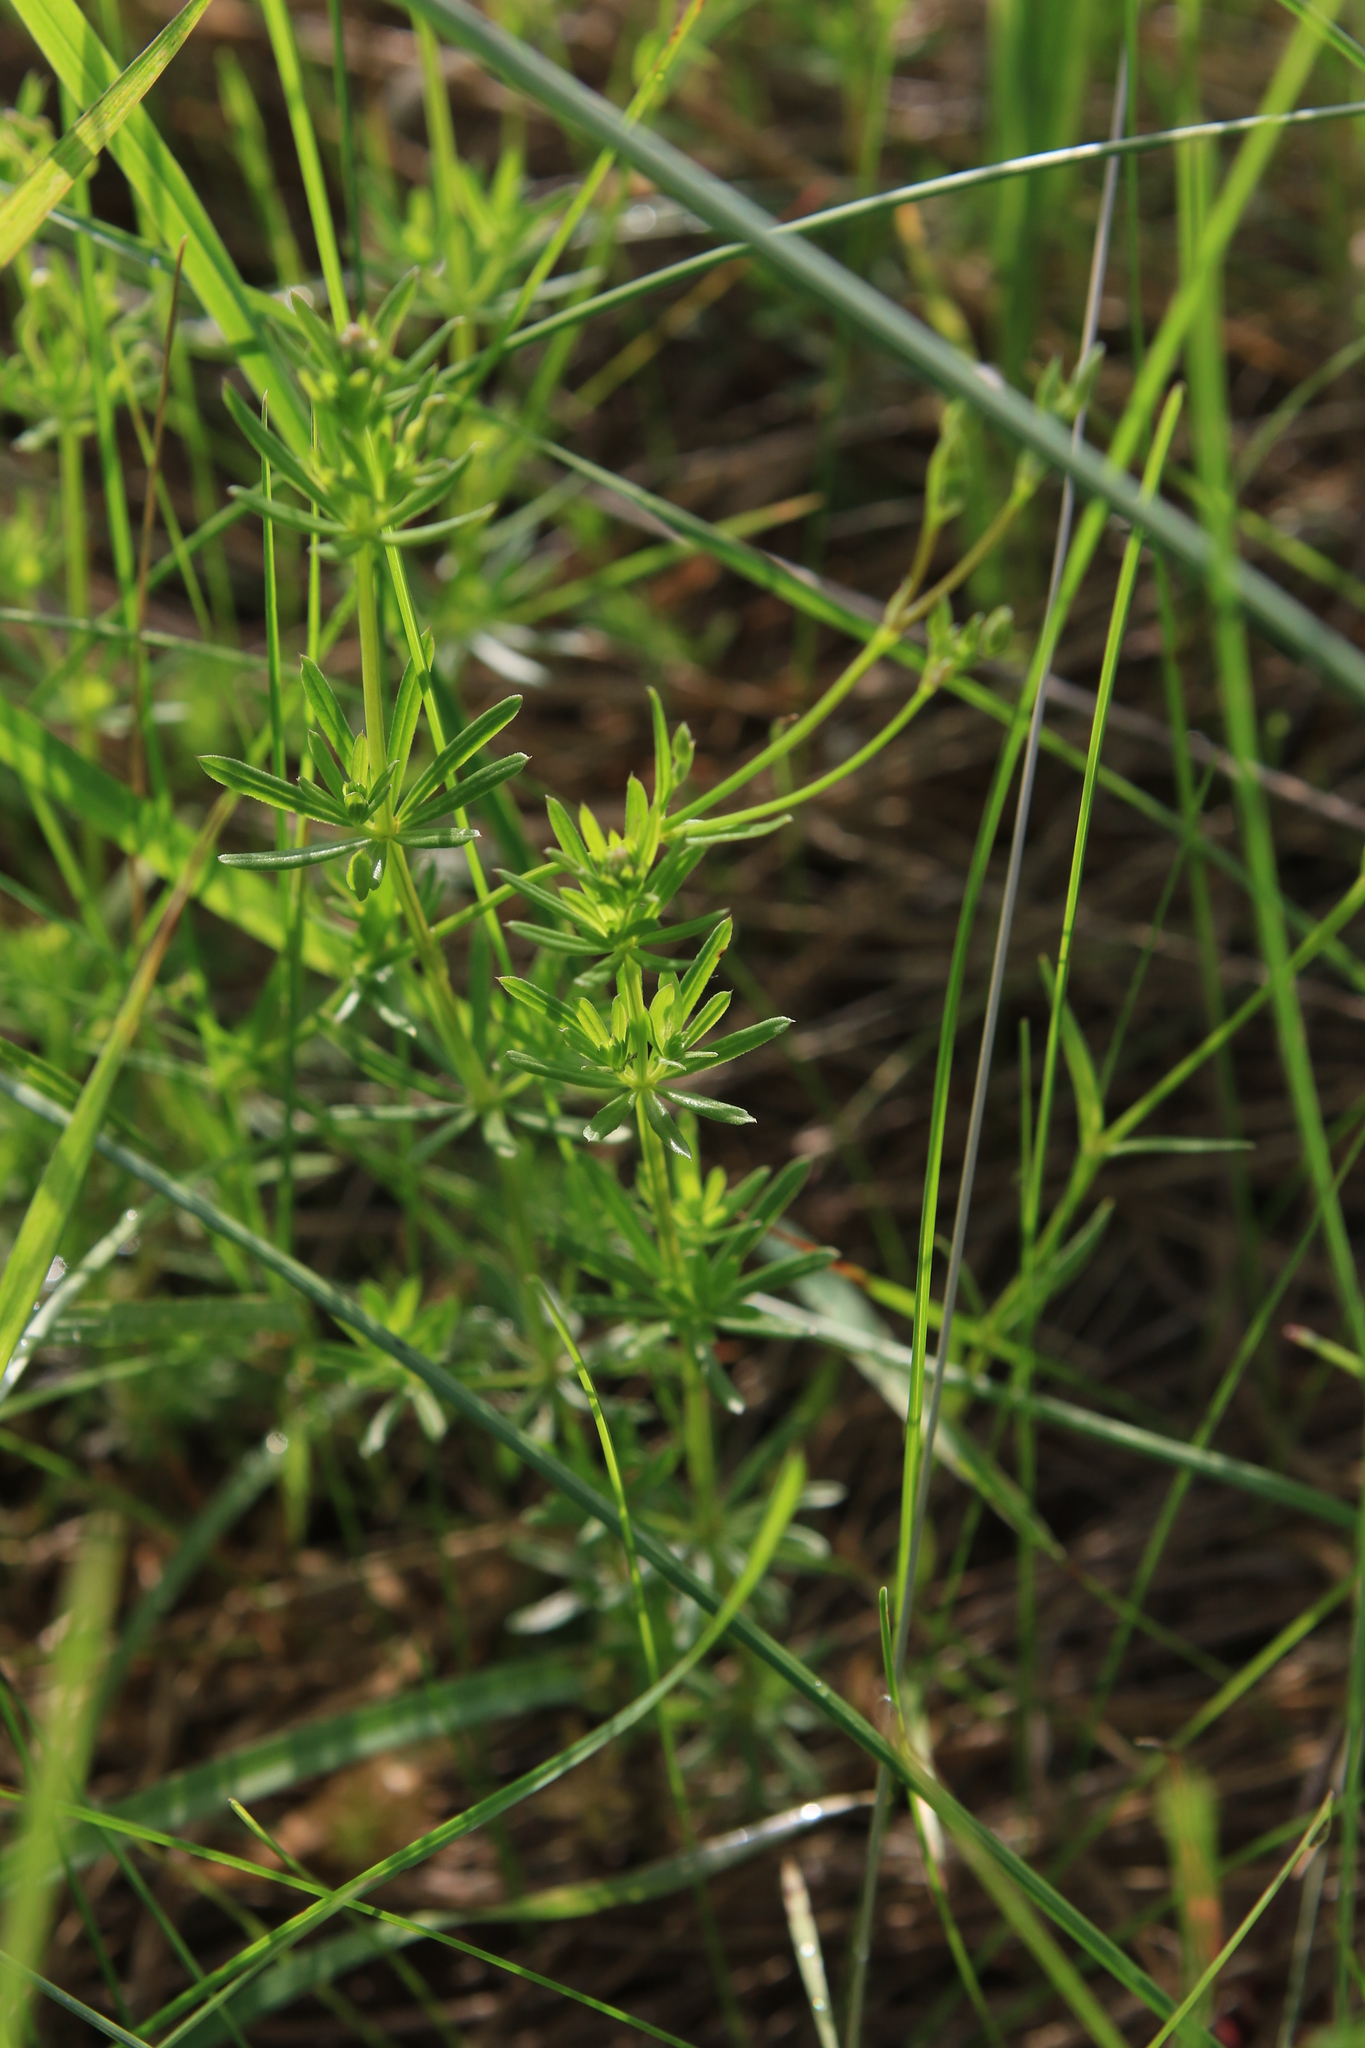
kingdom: Plantae
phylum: Tracheophyta
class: Magnoliopsida
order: Gentianales
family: Rubiaceae
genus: Galium
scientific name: Galium mollugo
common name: Hedge bedstraw
